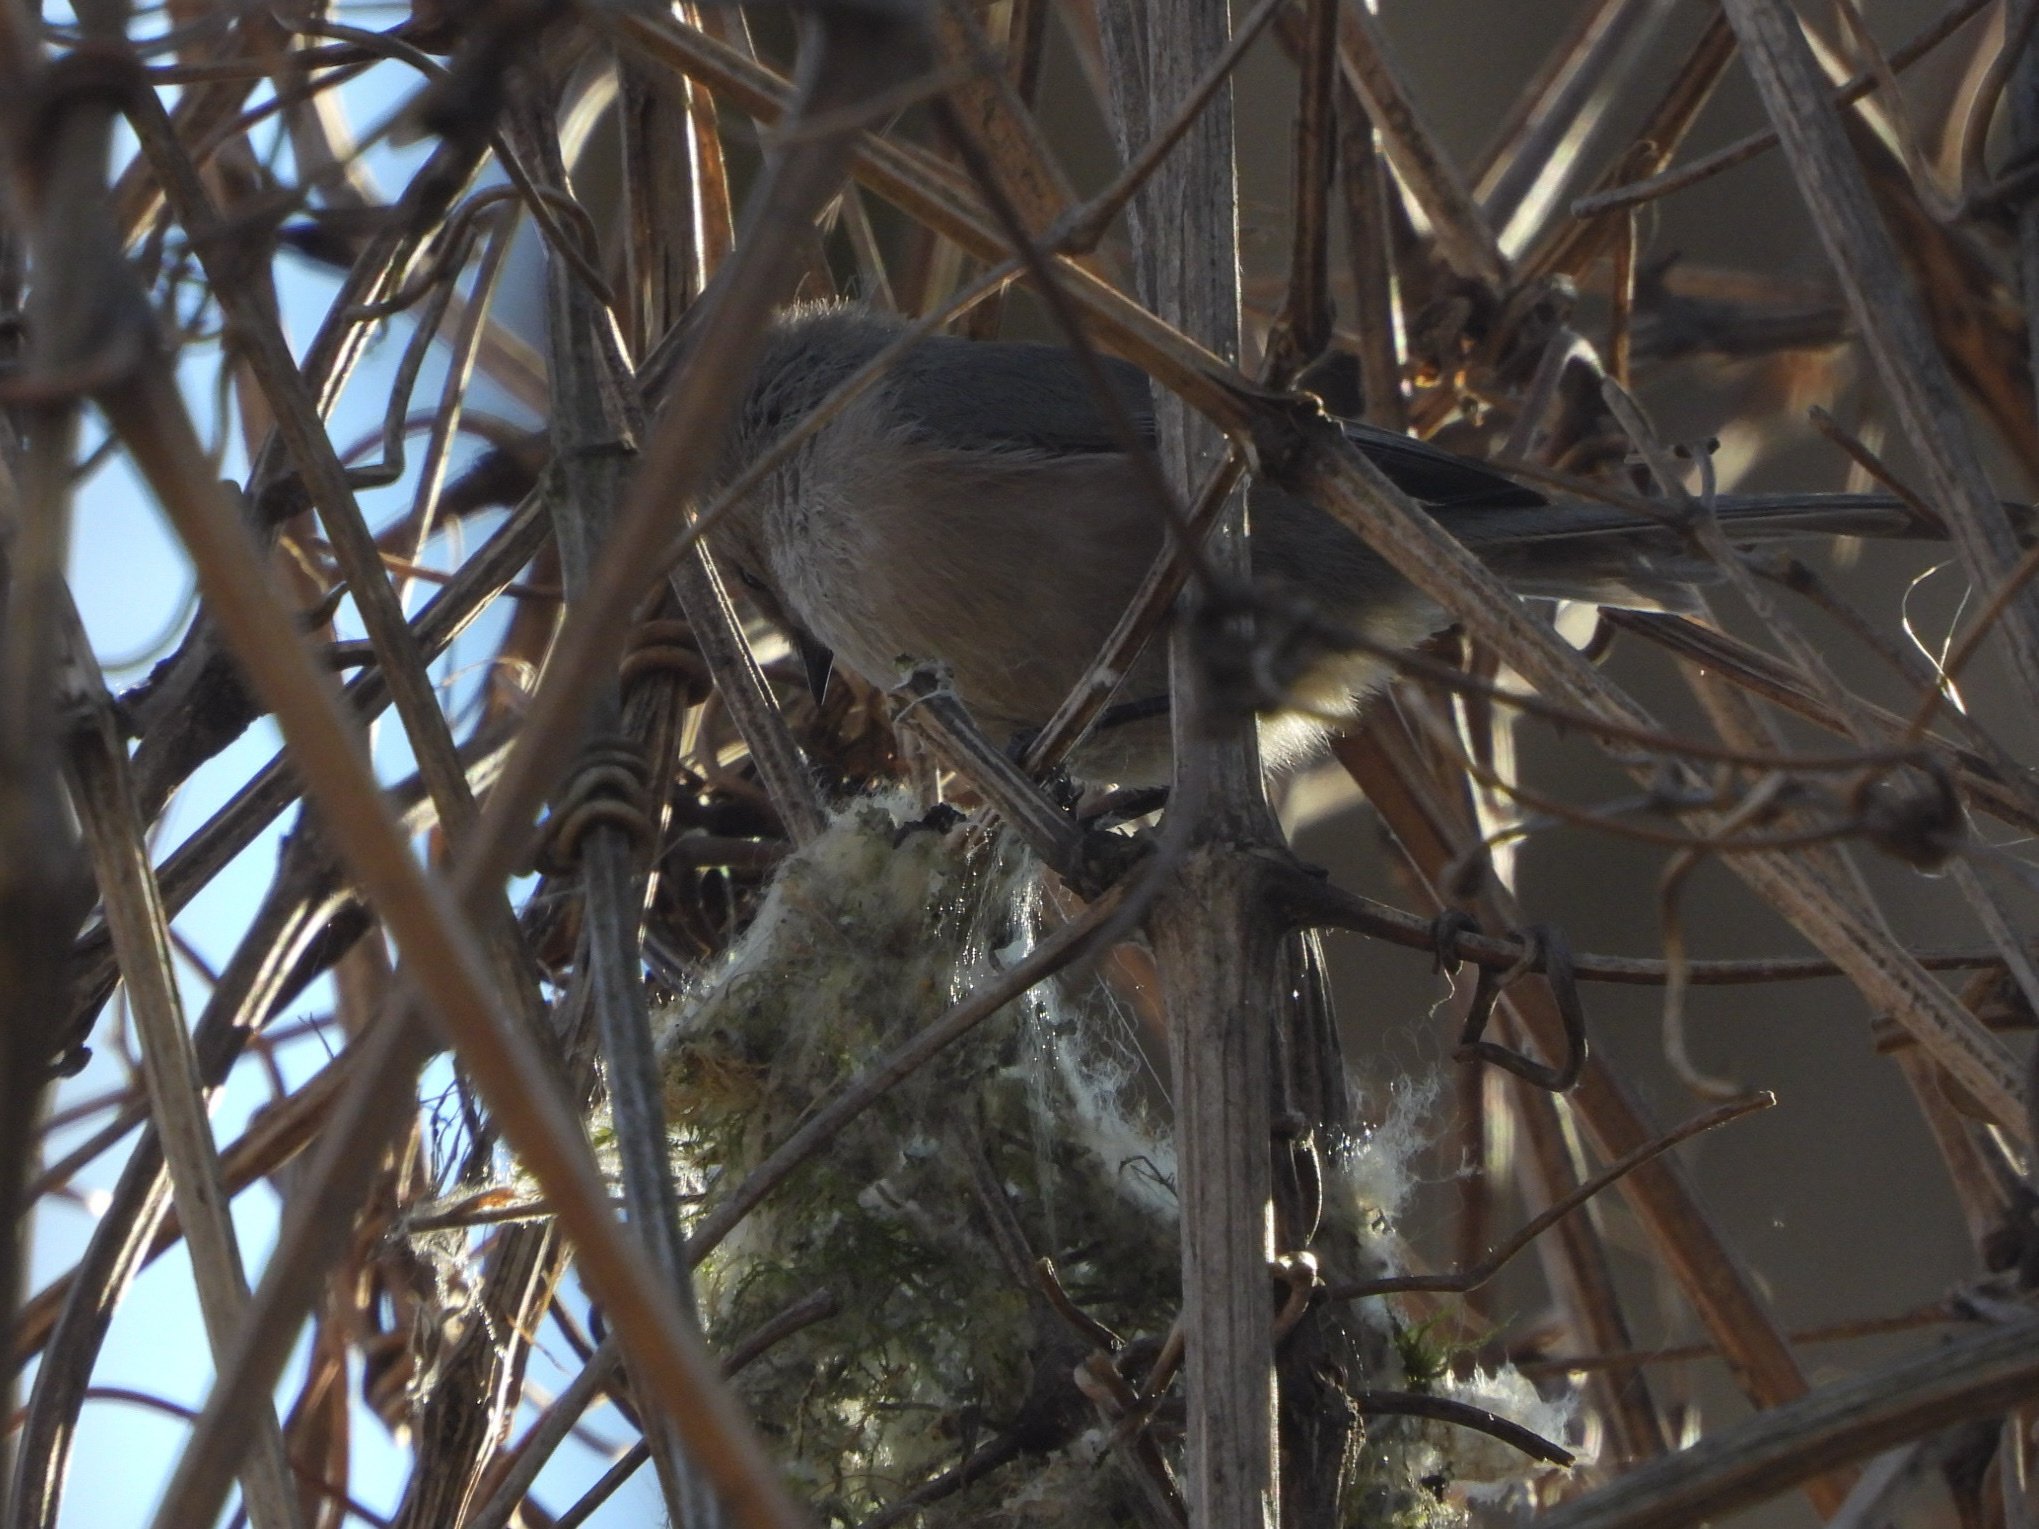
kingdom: Animalia
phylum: Chordata
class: Aves
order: Passeriformes
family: Aegithalidae
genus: Psaltriparus
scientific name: Psaltriparus minimus
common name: American bushtit
